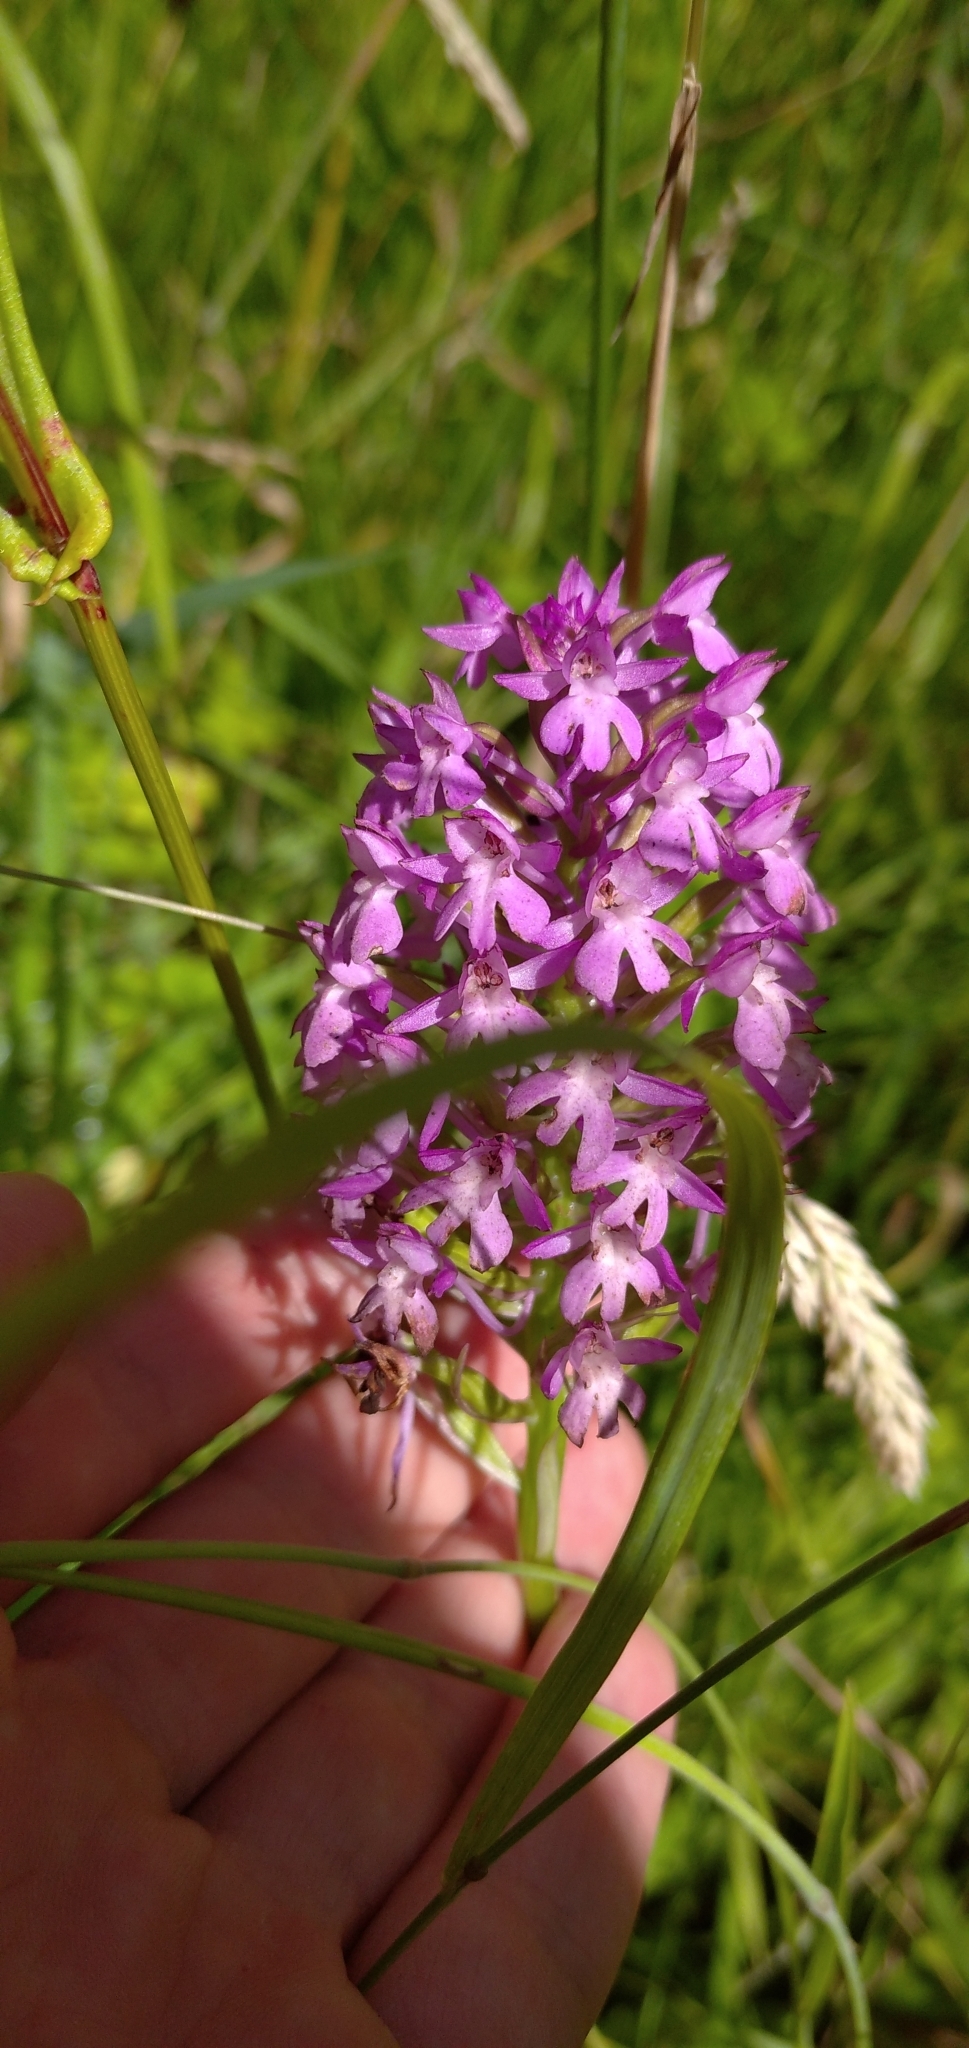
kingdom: Plantae
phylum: Tracheophyta
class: Liliopsida
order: Asparagales
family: Orchidaceae
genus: Anacamptis
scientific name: Anacamptis pyramidalis
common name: Pyramidal orchid
